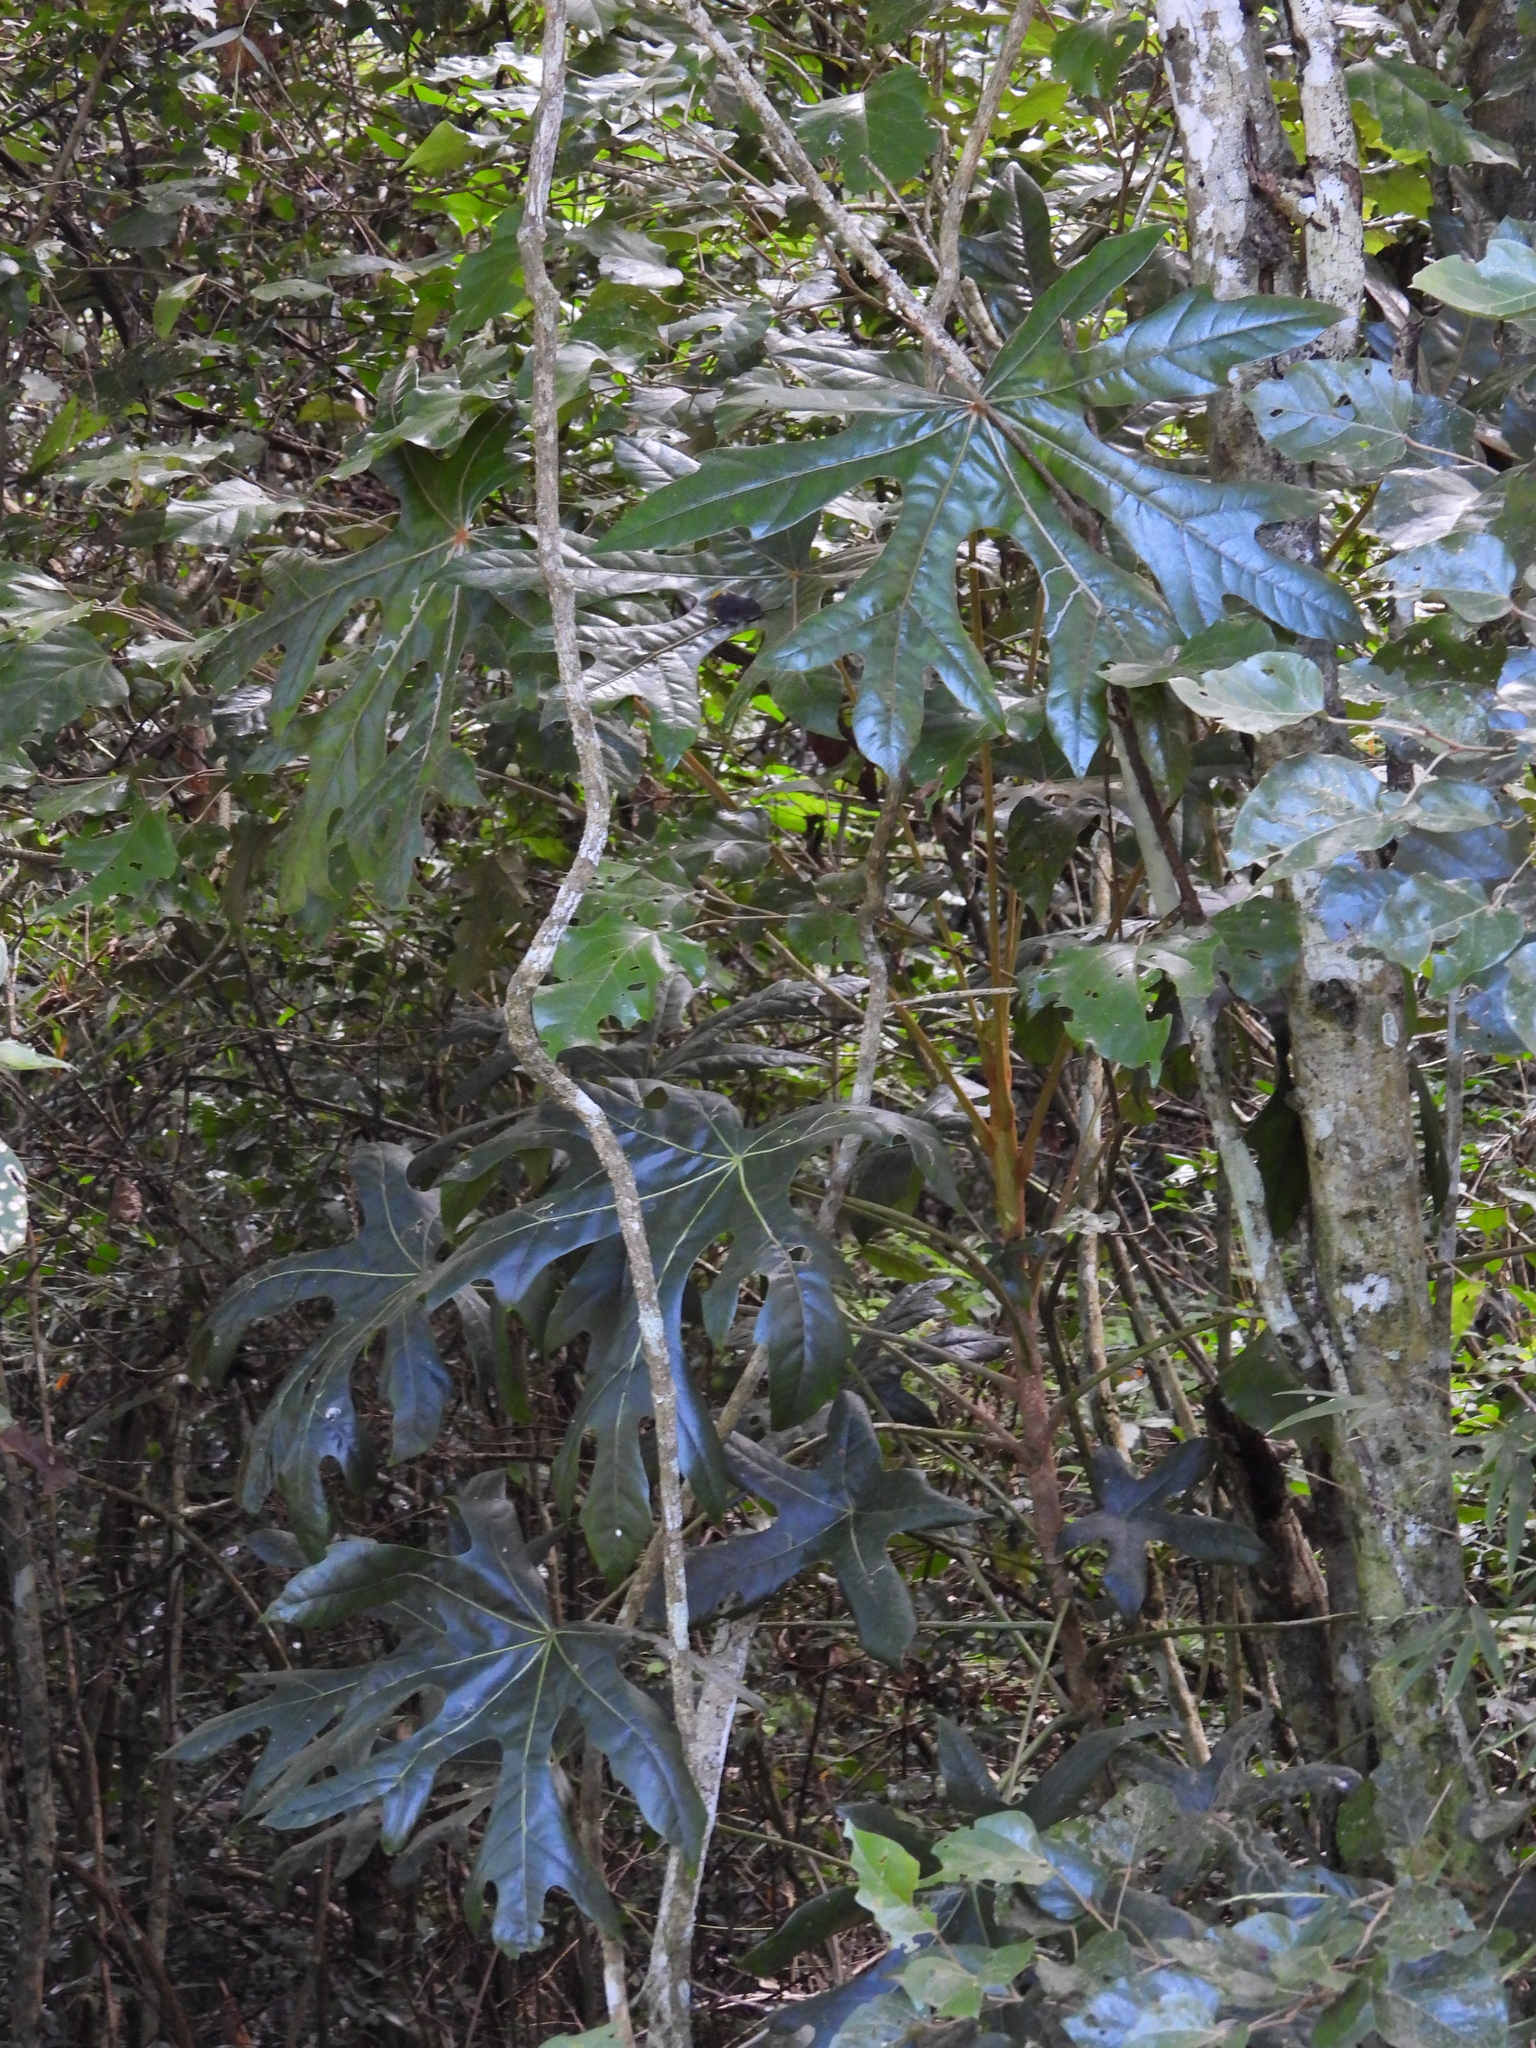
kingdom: Plantae
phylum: Tracheophyta
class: Magnoliopsida
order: Apiales
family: Araliaceae
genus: Oreopanax
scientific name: Oreopanax geminatus
